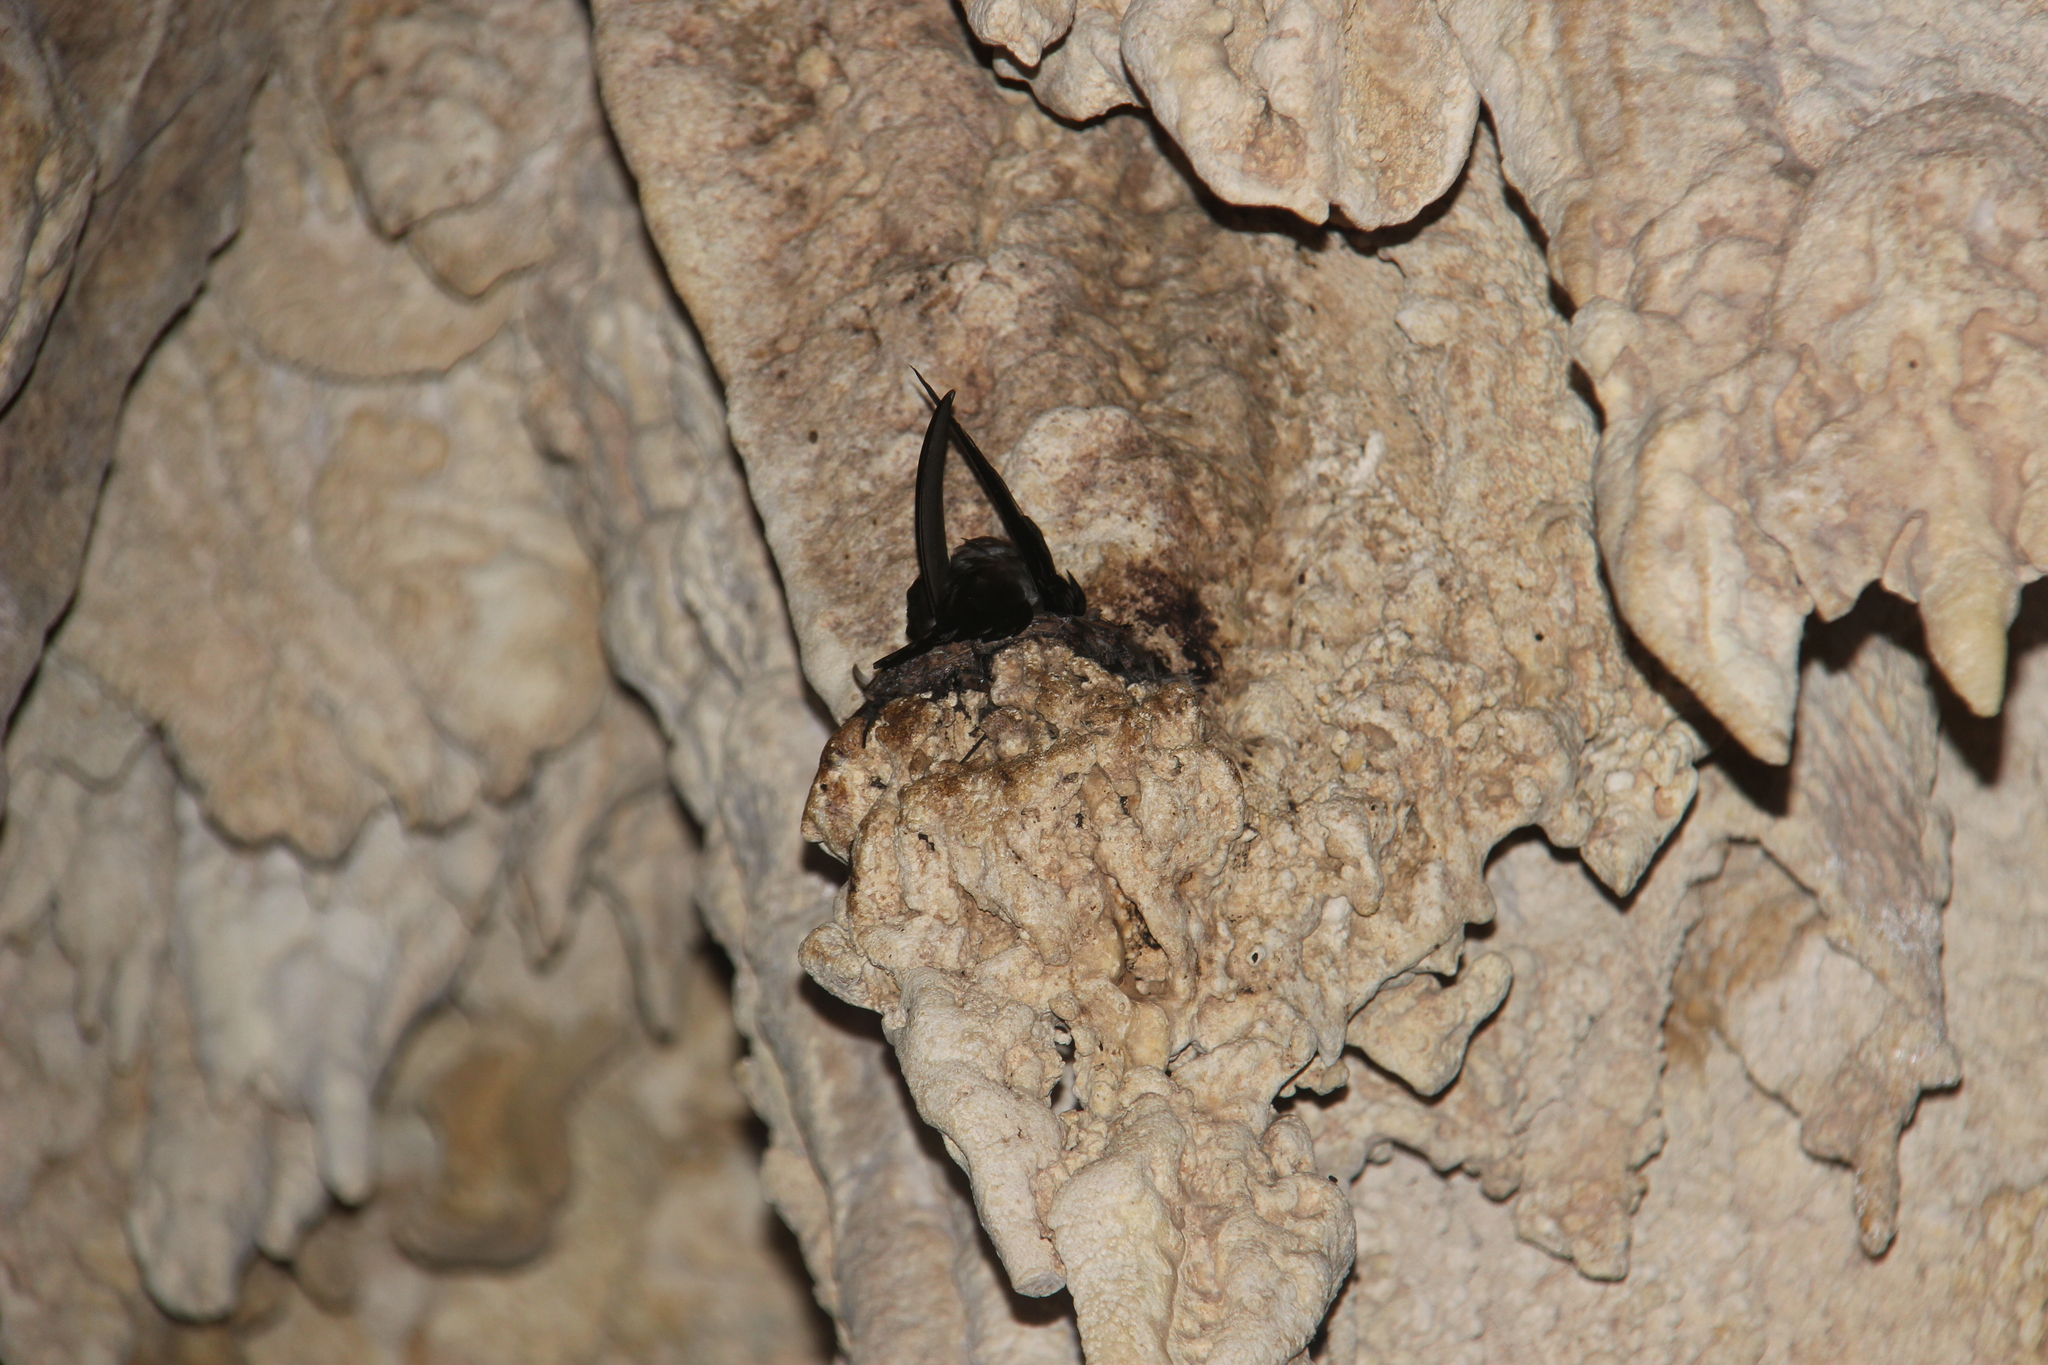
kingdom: Animalia
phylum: Chordata
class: Aves
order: Apodiformes
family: Apodidae
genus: Aerodramus
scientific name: Aerodramus sawtelli
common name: Atiu swiftlet
